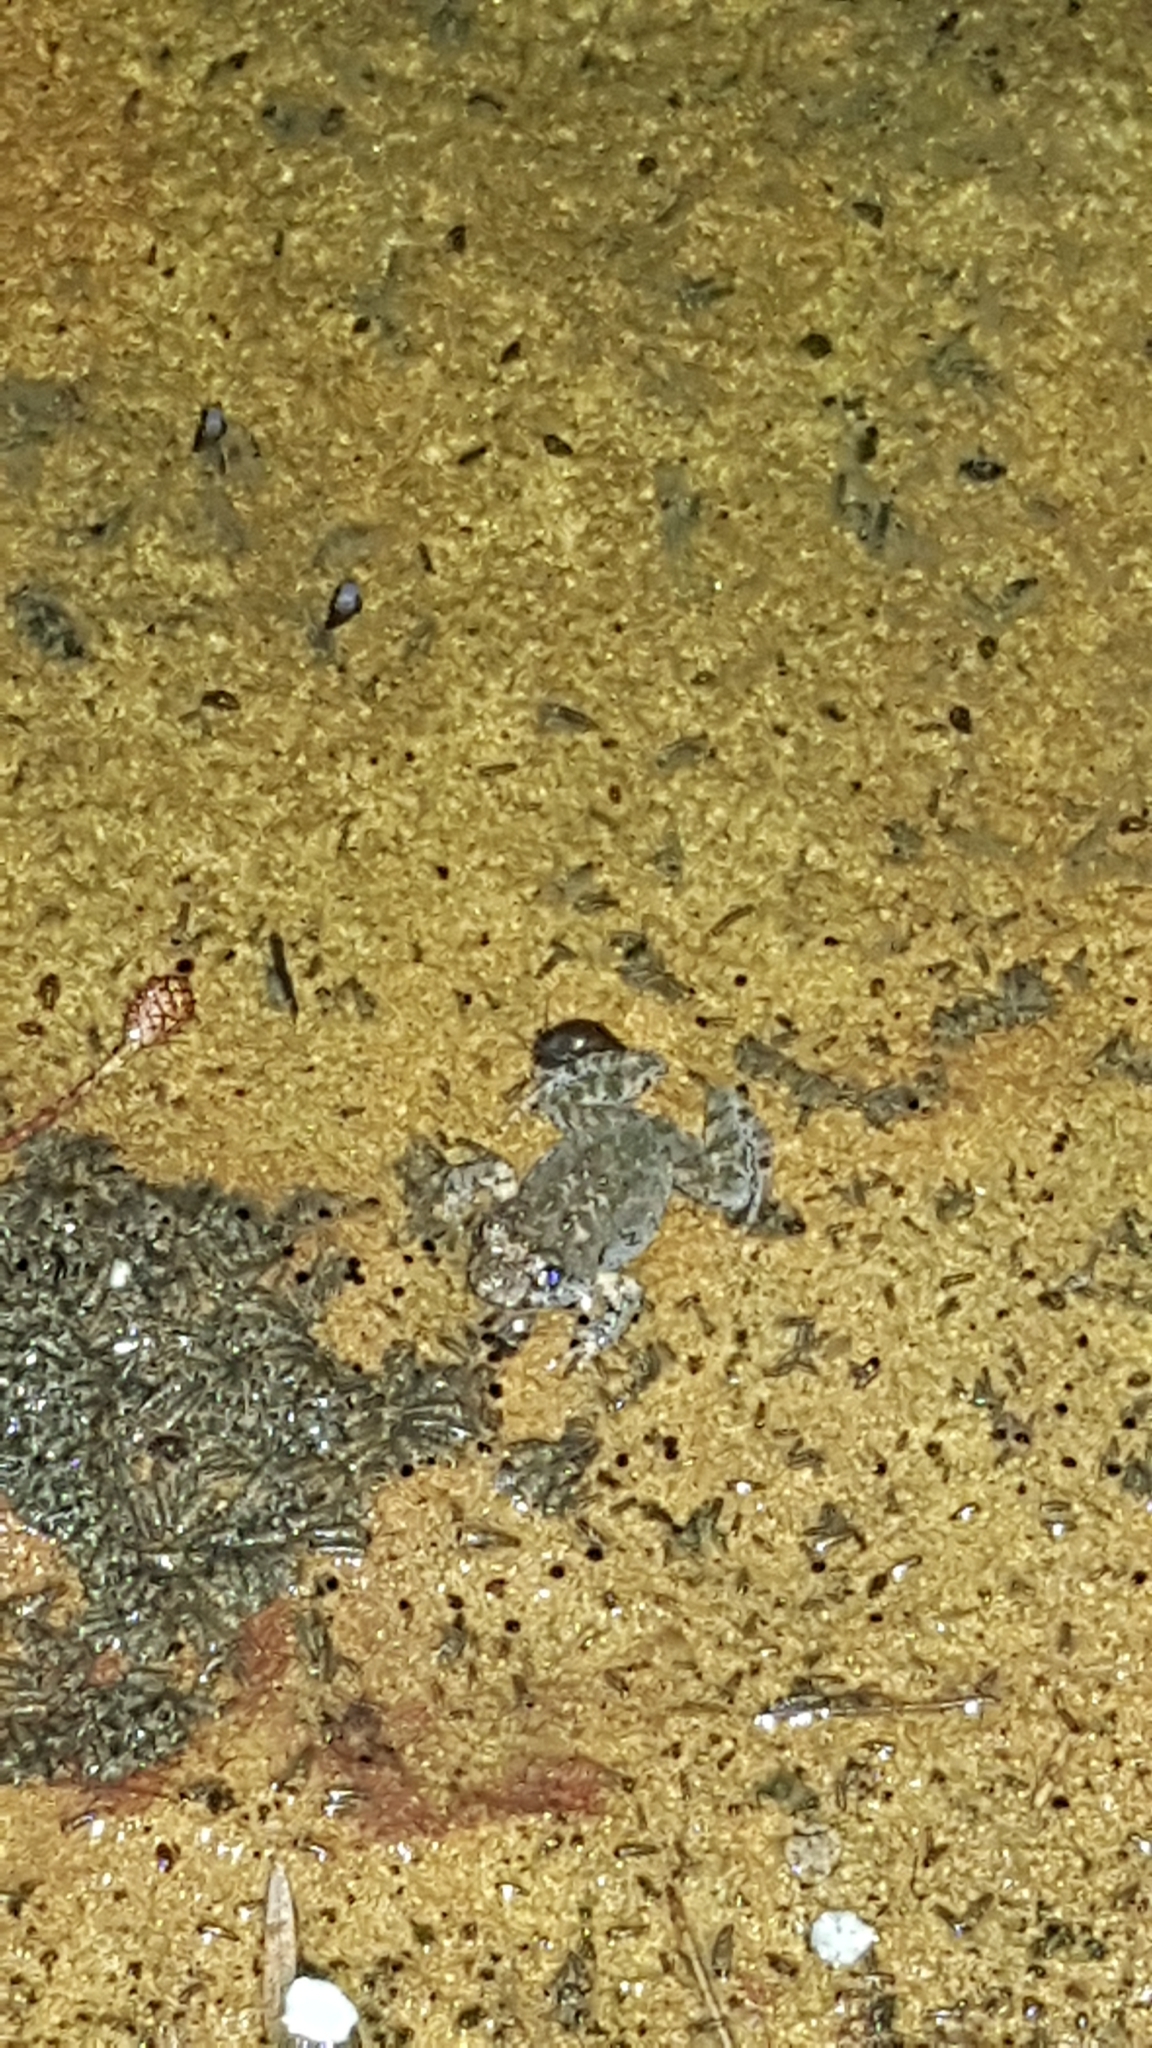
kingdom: Animalia
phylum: Chordata
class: Amphibia
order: Anura
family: Myobatrachidae
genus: Crinia
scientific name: Crinia signifera
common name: Brown froglet
